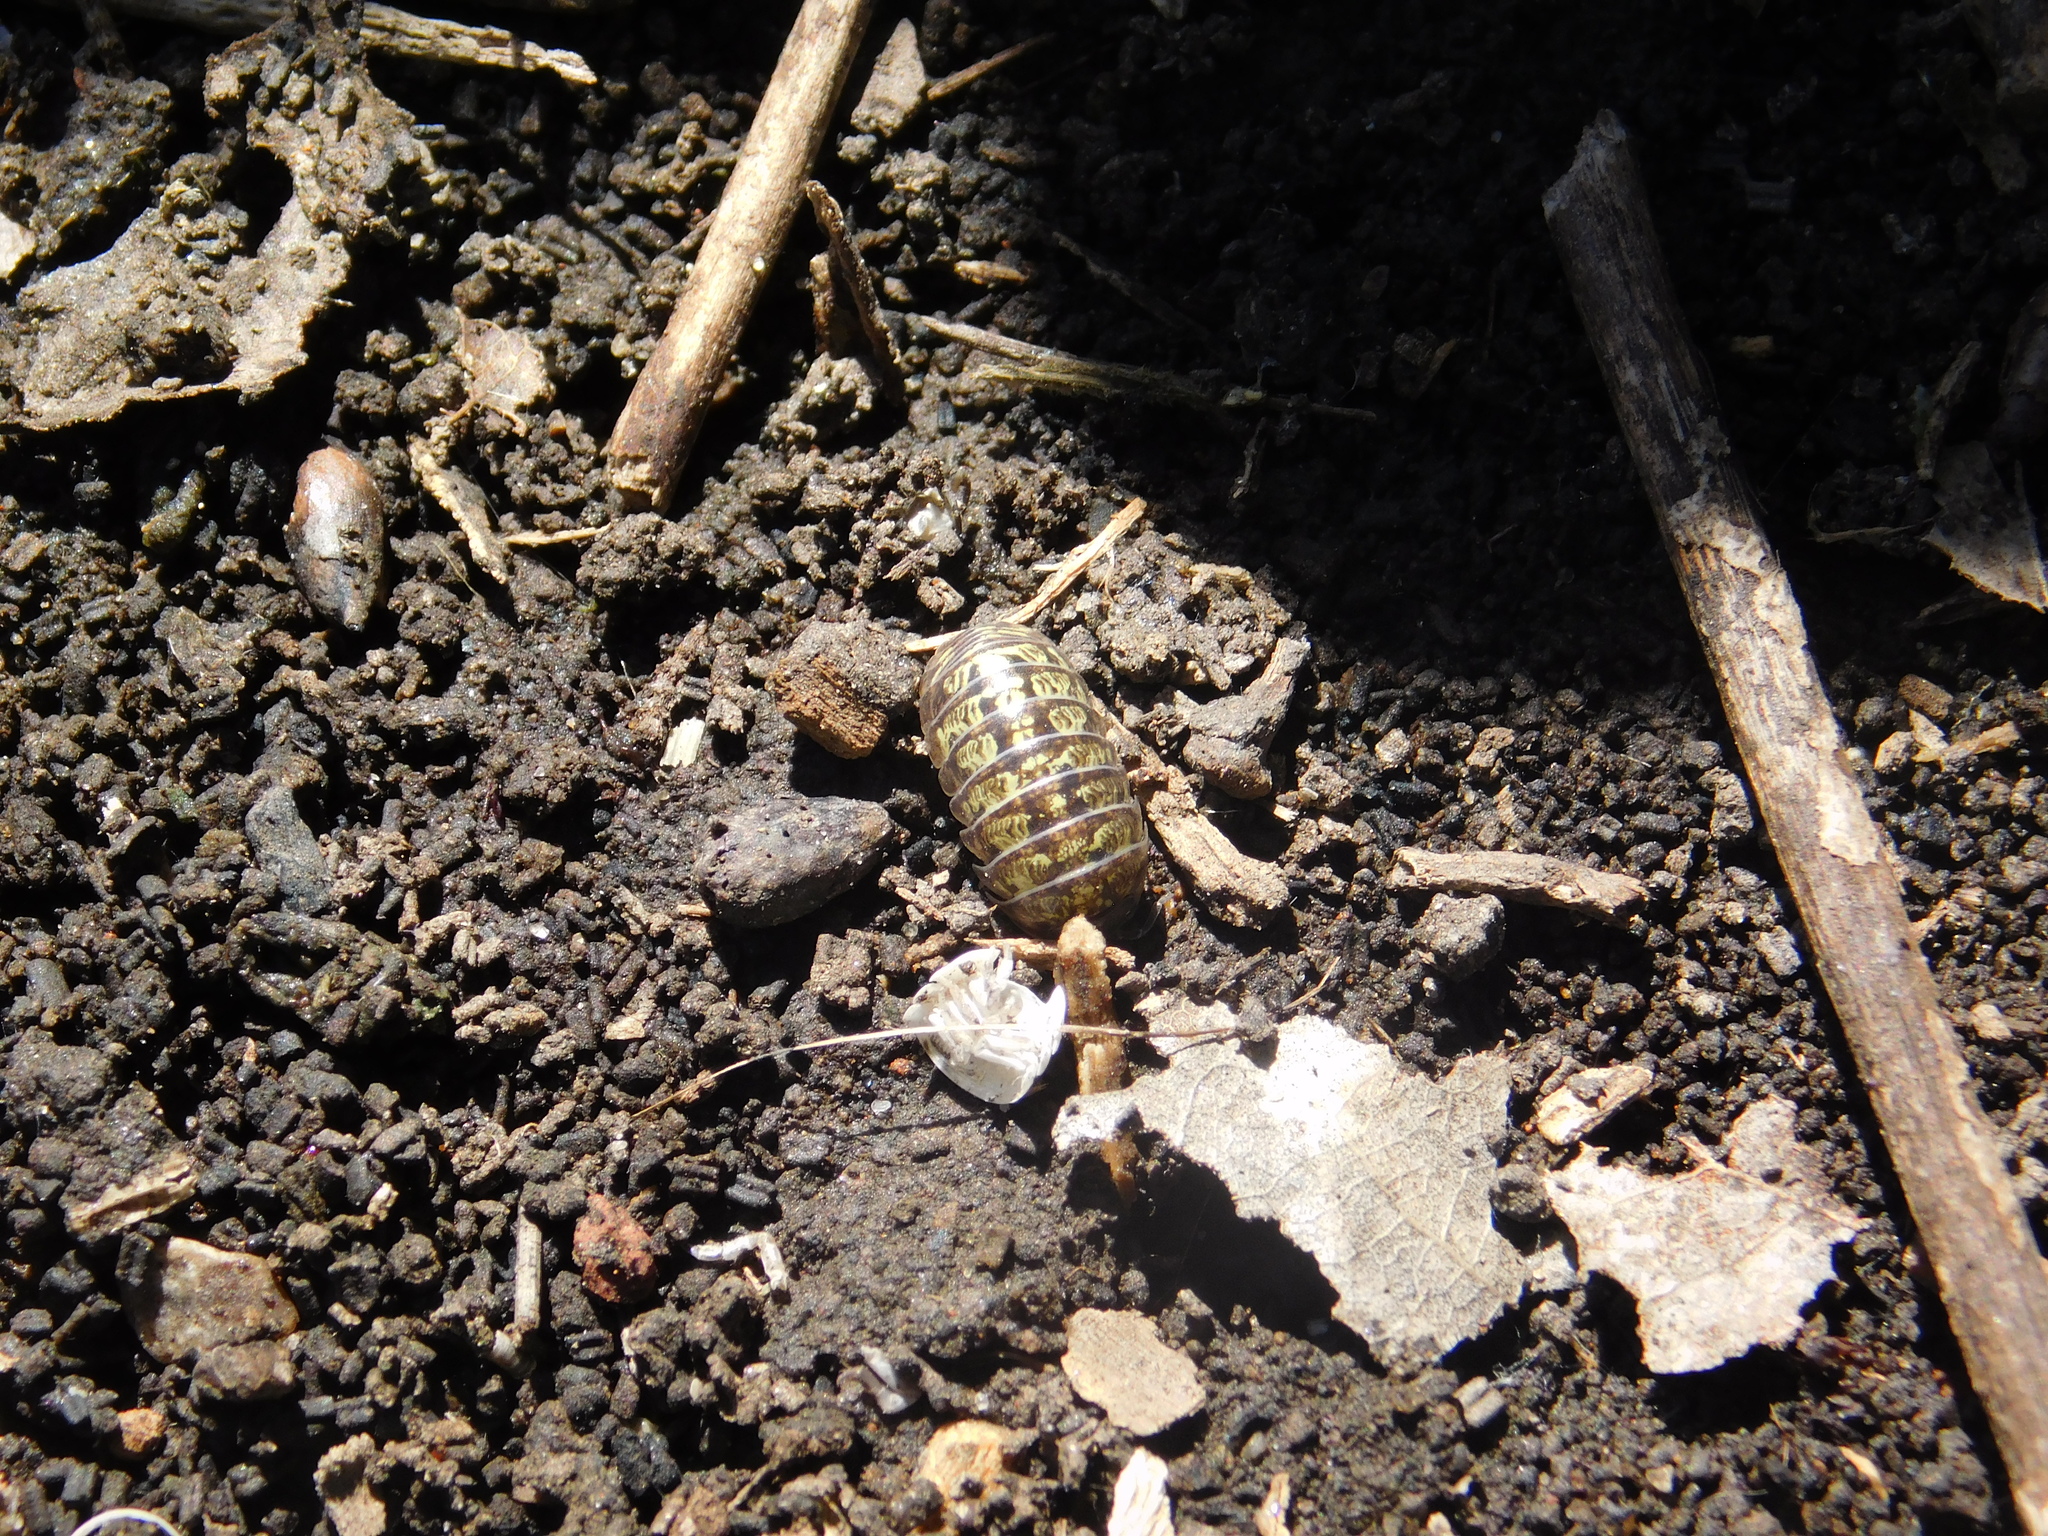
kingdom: Animalia
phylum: Arthropoda
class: Malacostraca
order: Isopoda
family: Armadillidiidae
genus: Armadillidium
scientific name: Armadillidium vulgare
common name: Common pill woodlouse
